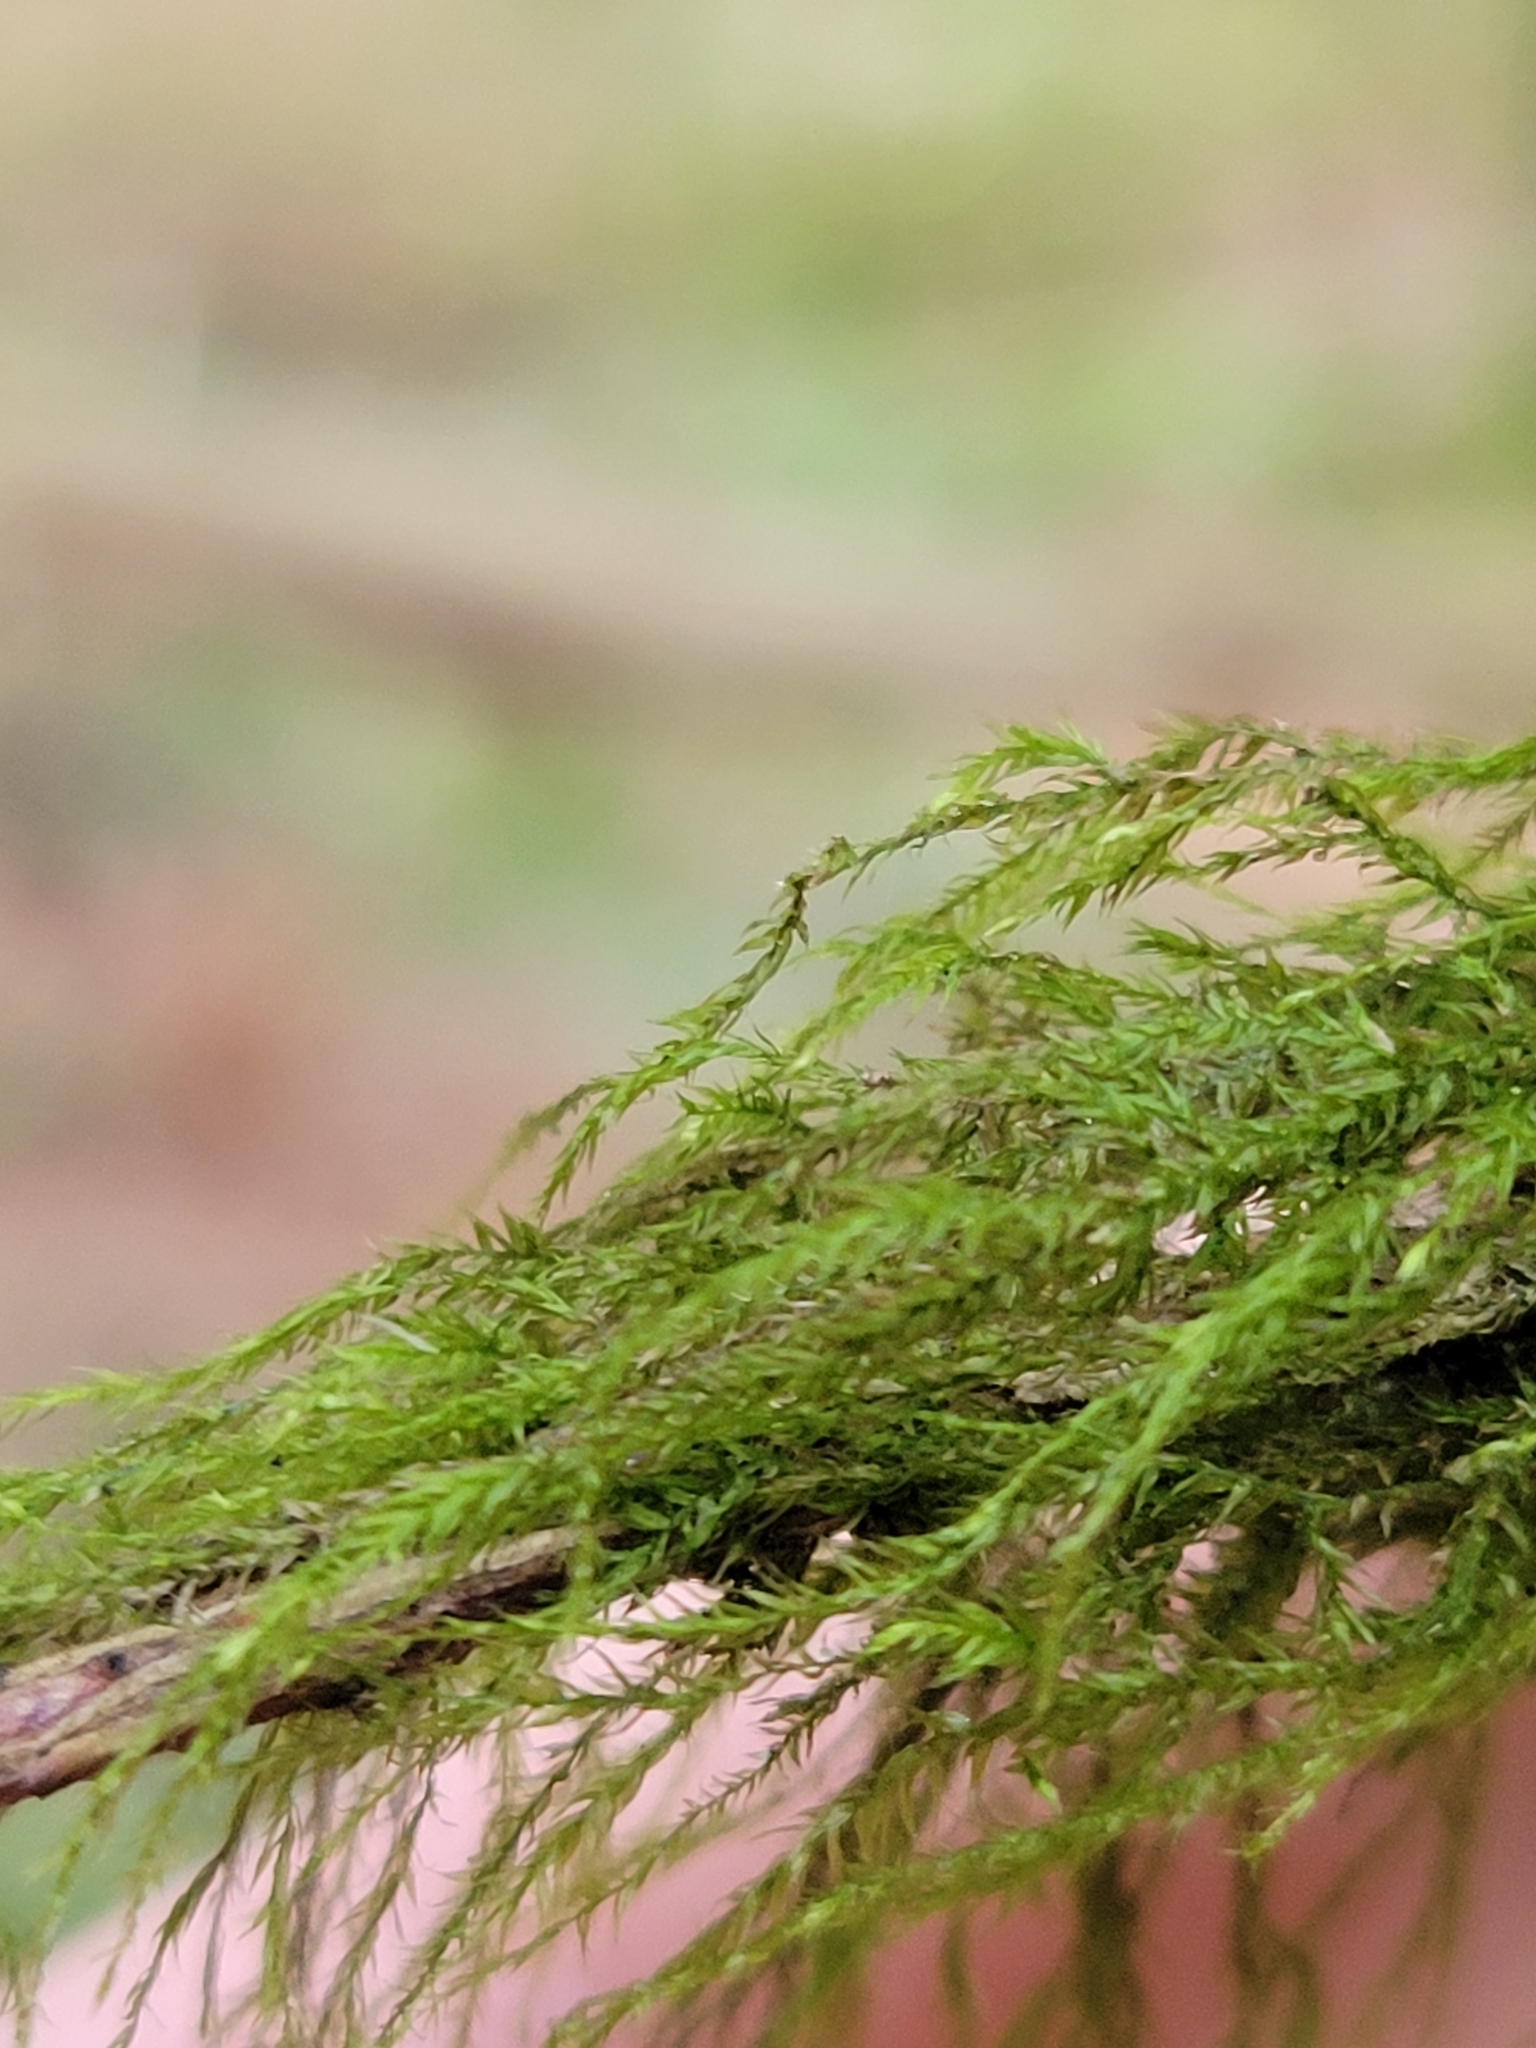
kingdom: Plantae
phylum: Bryophyta
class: Bryopsida
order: Hypnales
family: Lembophyllaceae
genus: Pseudisothecium
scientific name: Pseudisothecium stoloniferum
